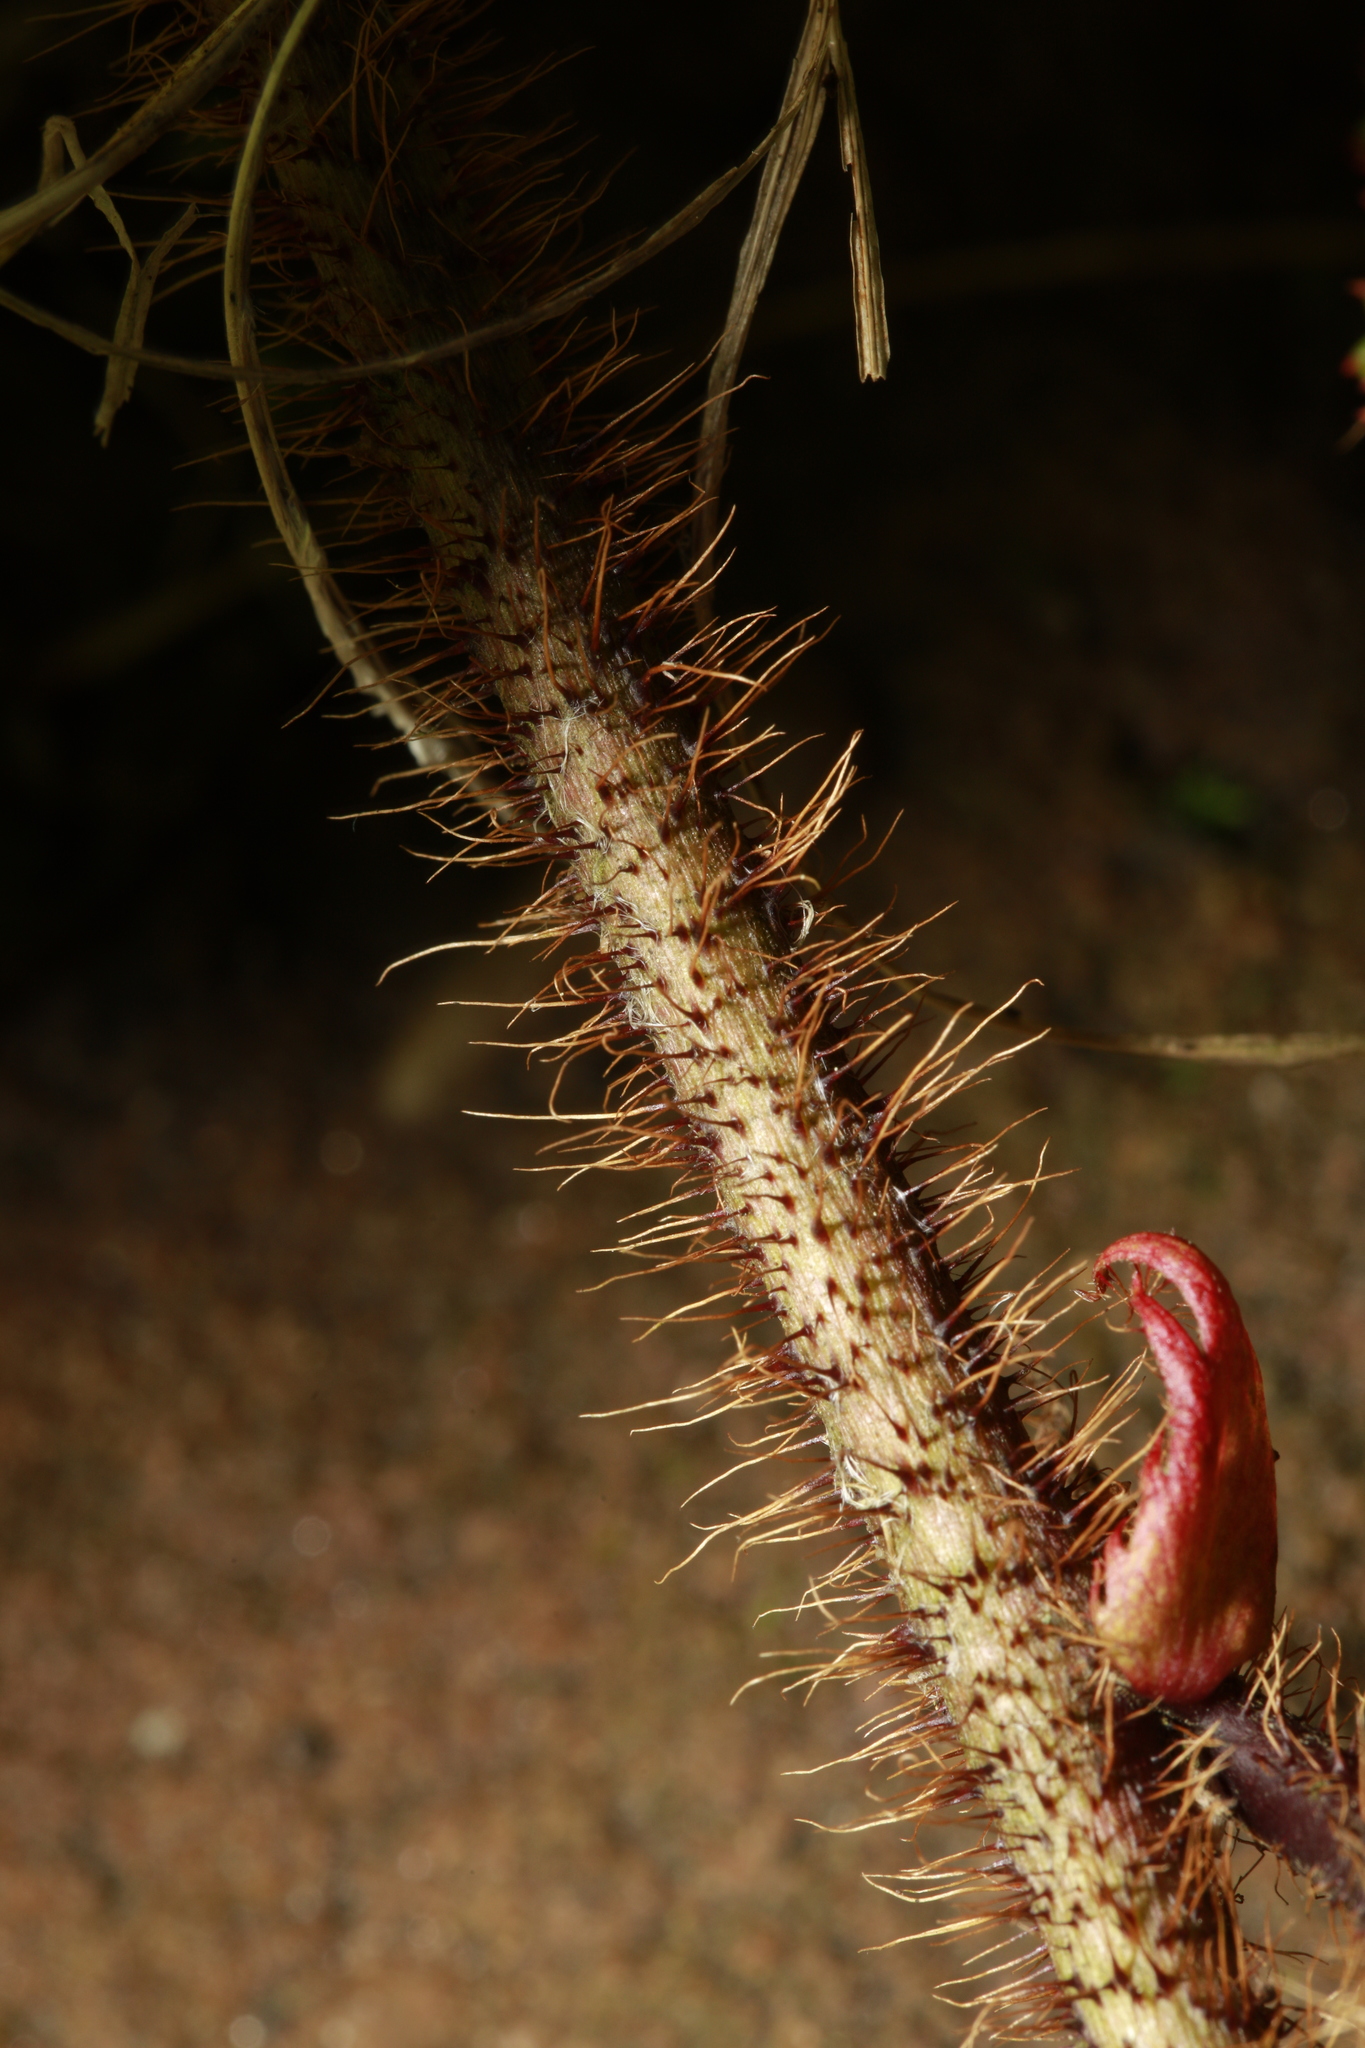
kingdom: Plantae
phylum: Tracheophyta
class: Magnoliopsida
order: Rosales
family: Rosaceae
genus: Rubus
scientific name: Rubus tricolor
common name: Chinese bramble
